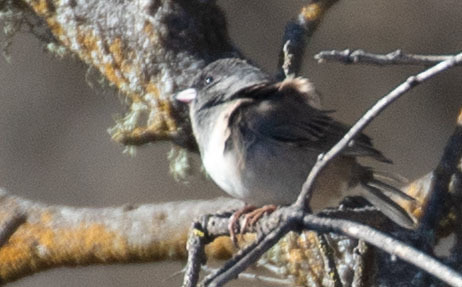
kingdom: Animalia
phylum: Chordata
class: Aves
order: Passeriformes
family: Passerellidae
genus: Junco
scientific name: Junco hyemalis
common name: Dark-eyed junco
